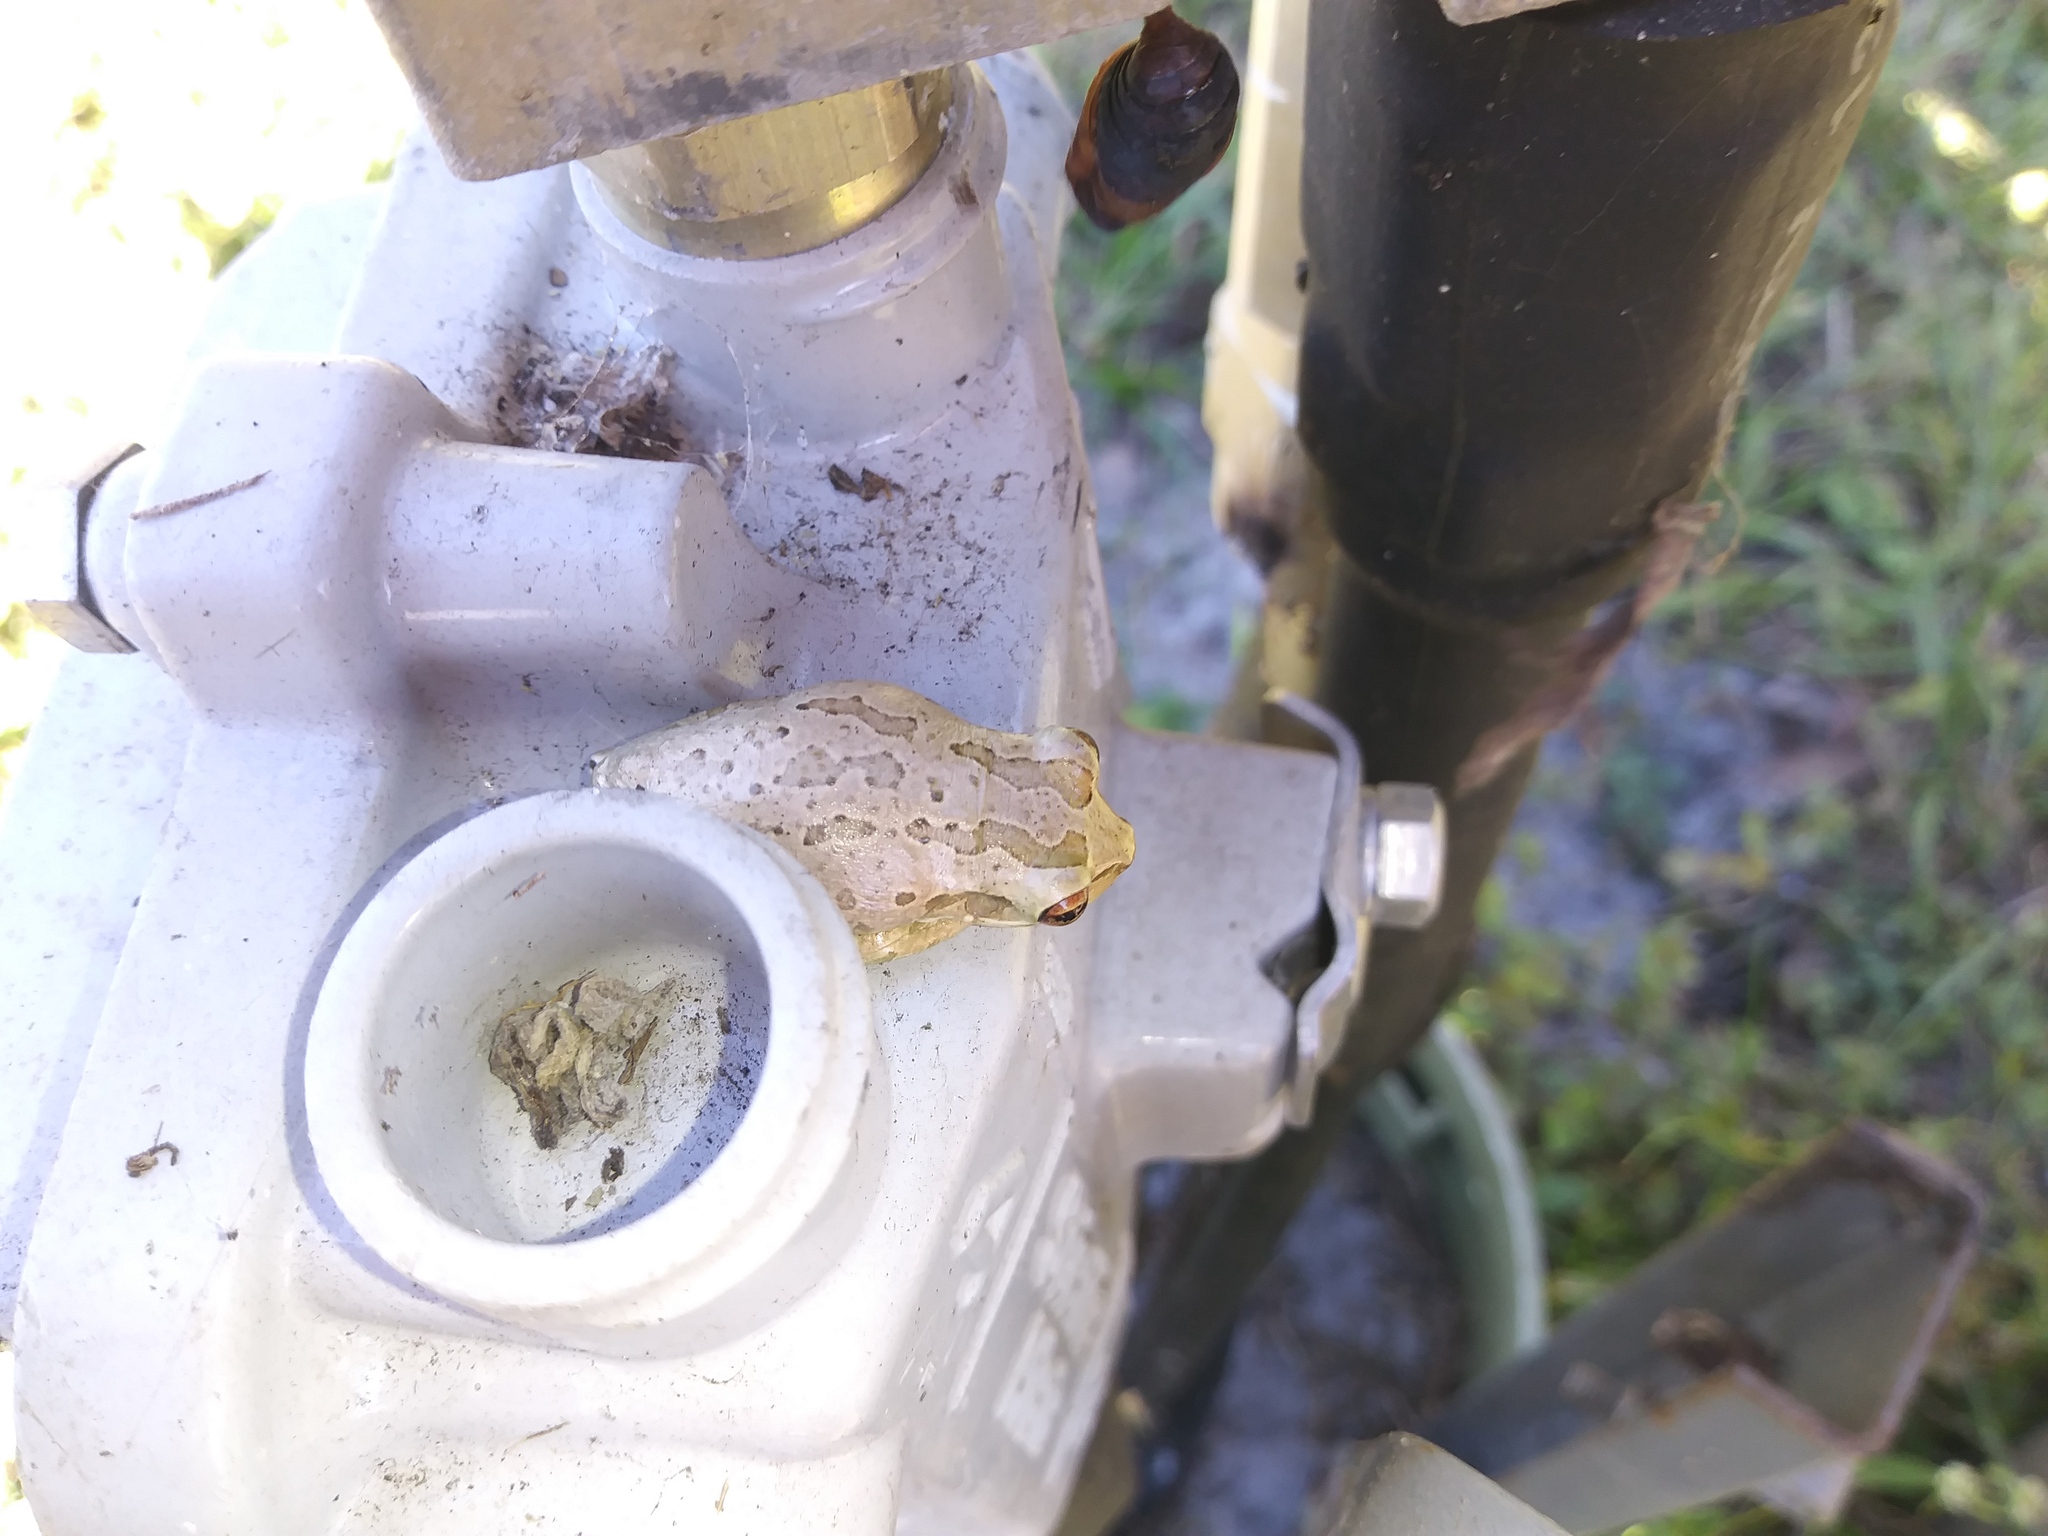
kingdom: Animalia
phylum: Chordata
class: Amphibia
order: Anura
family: Hylidae
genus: Osteopilus
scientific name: Osteopilus septentrionalis
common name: Cuban treefrog
